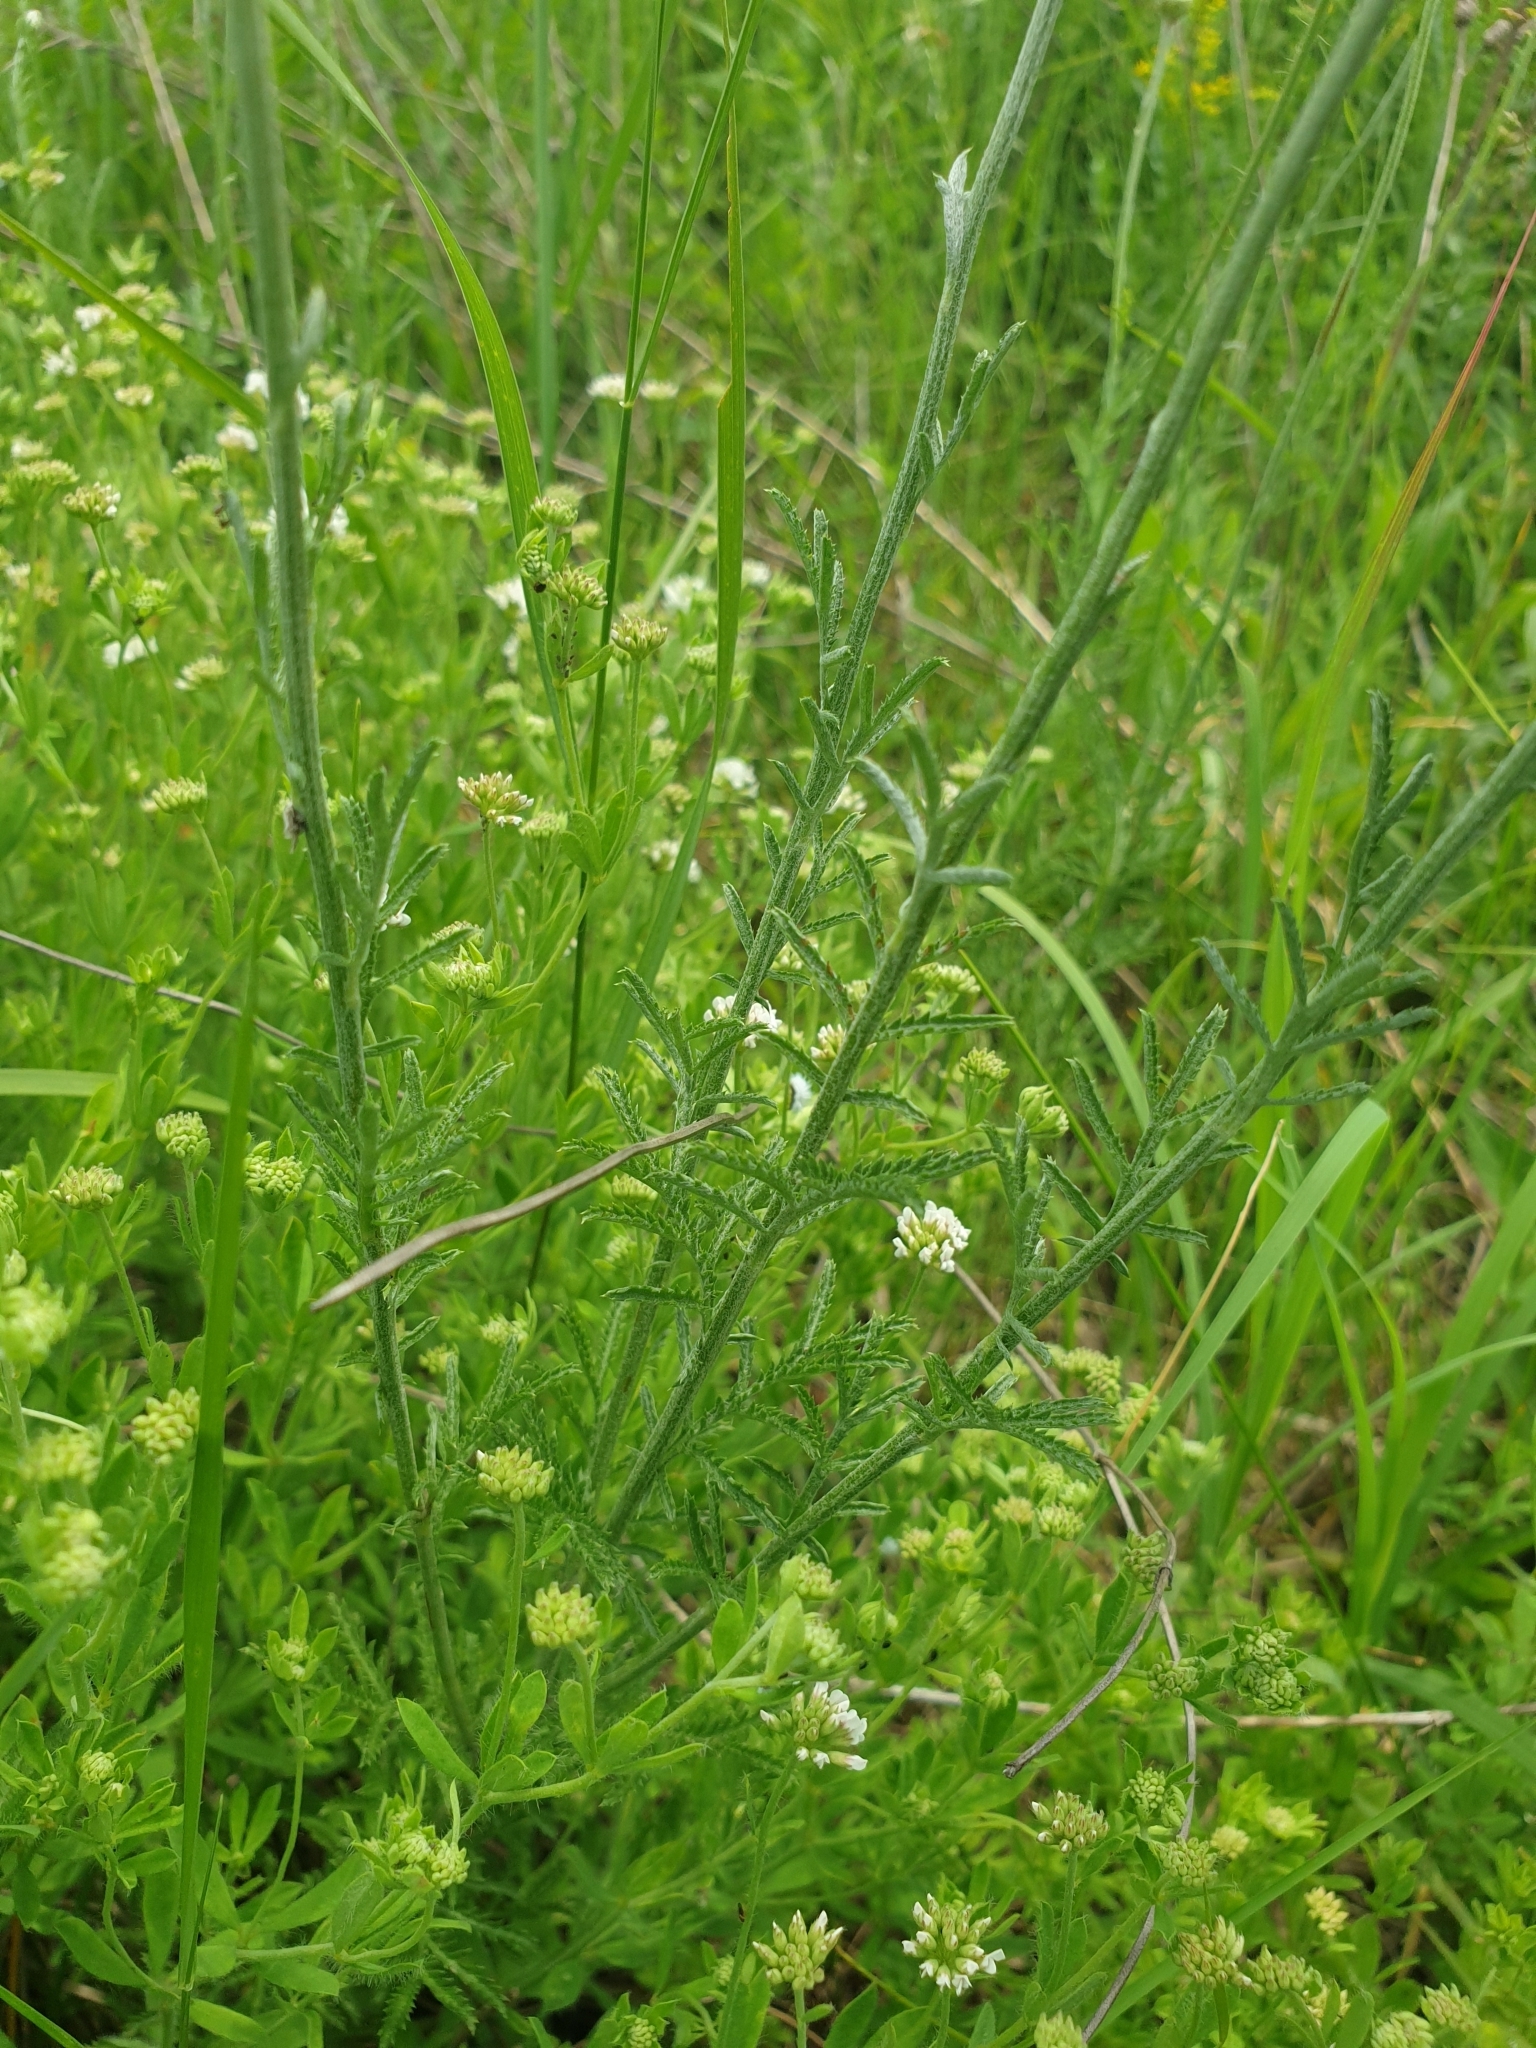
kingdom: Plantae
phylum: Tracheophyta
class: Magnoliopsida
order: Asterales
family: Asteraceae
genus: Cota
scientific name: Cota tinctoria
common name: Golden chamomile
